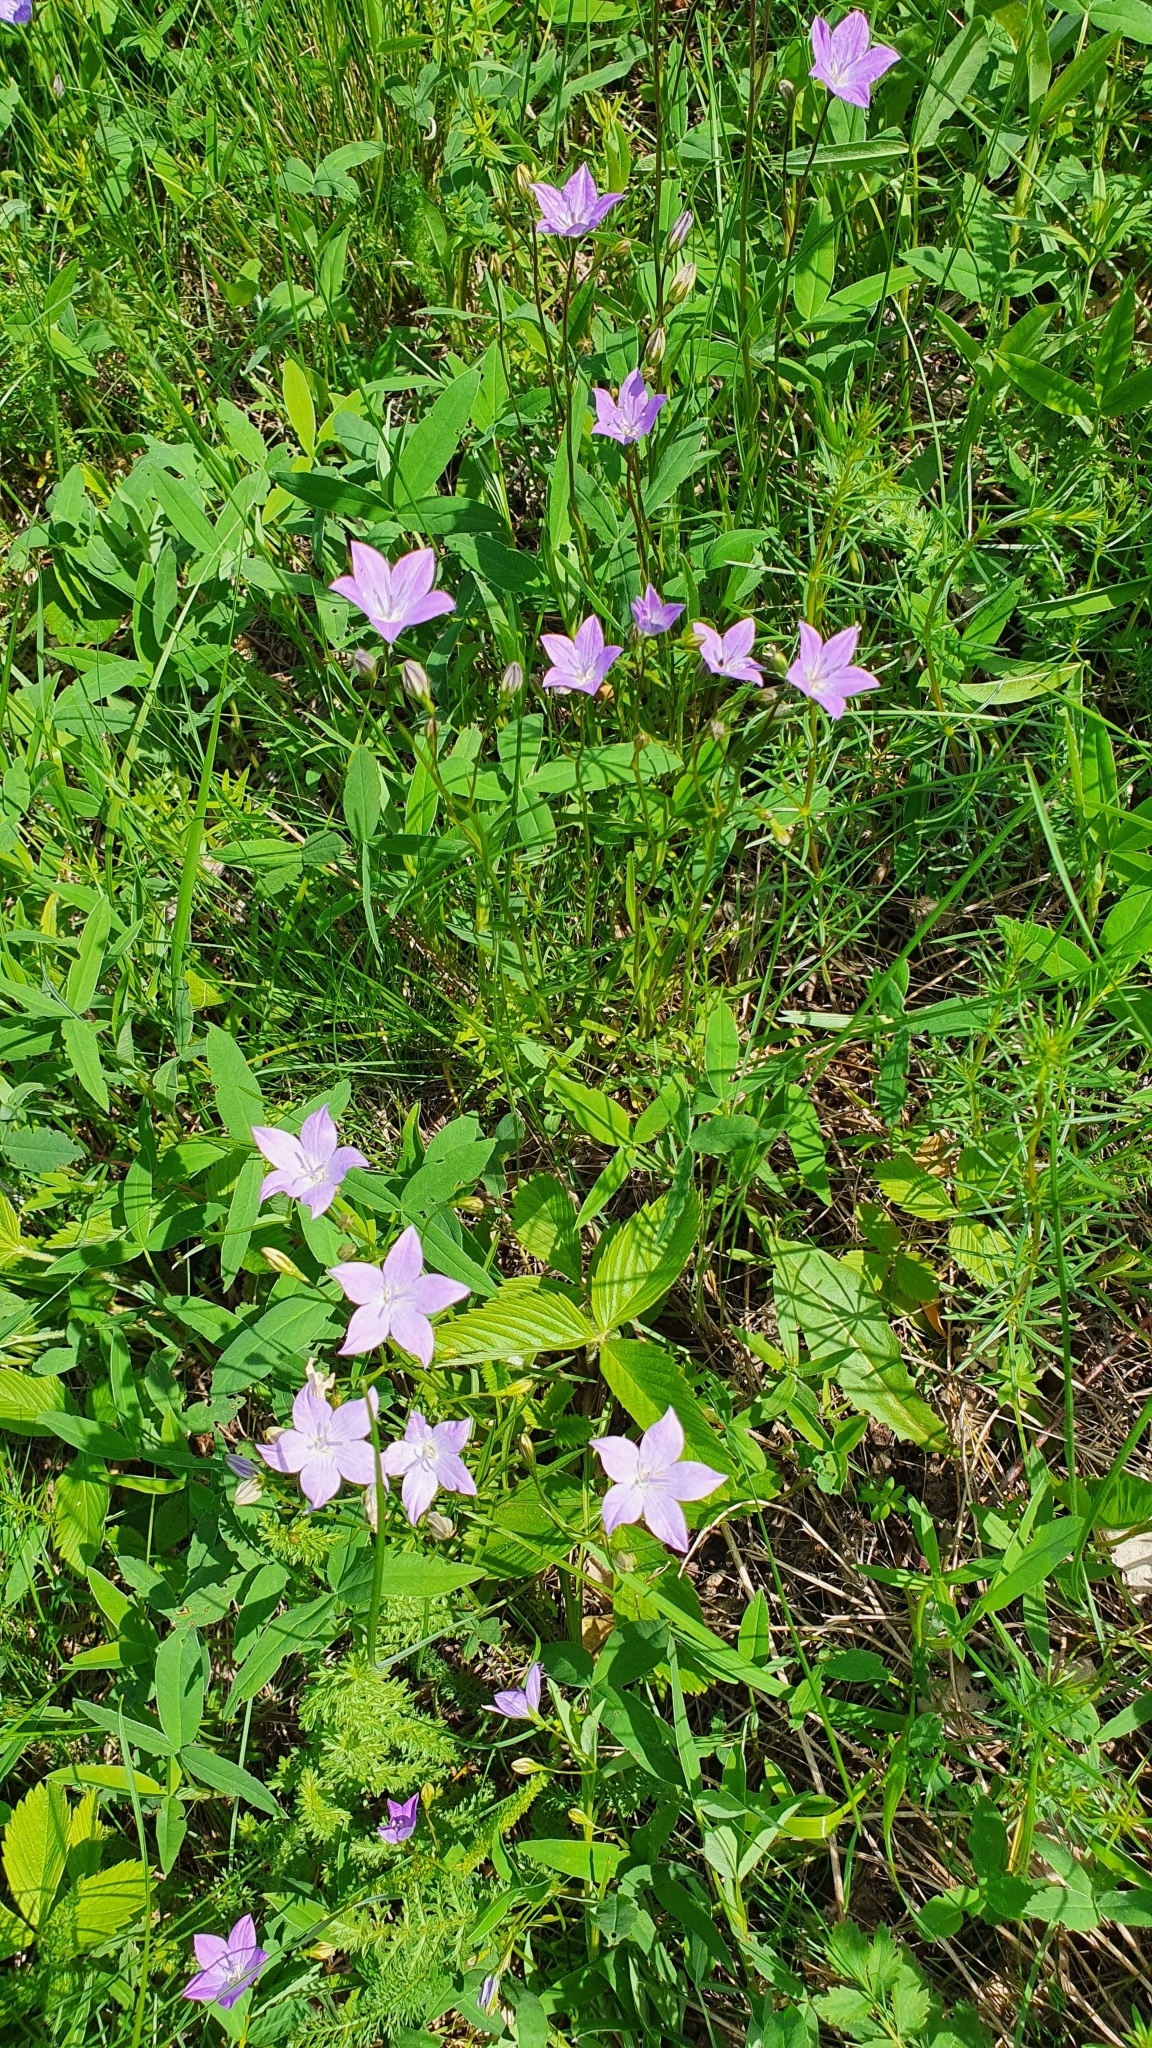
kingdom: Plantae
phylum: Tracheophyta
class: Magnoliopsida
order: Asterales
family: Campanulaceae
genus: Campanula
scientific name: Campanula stevenii
